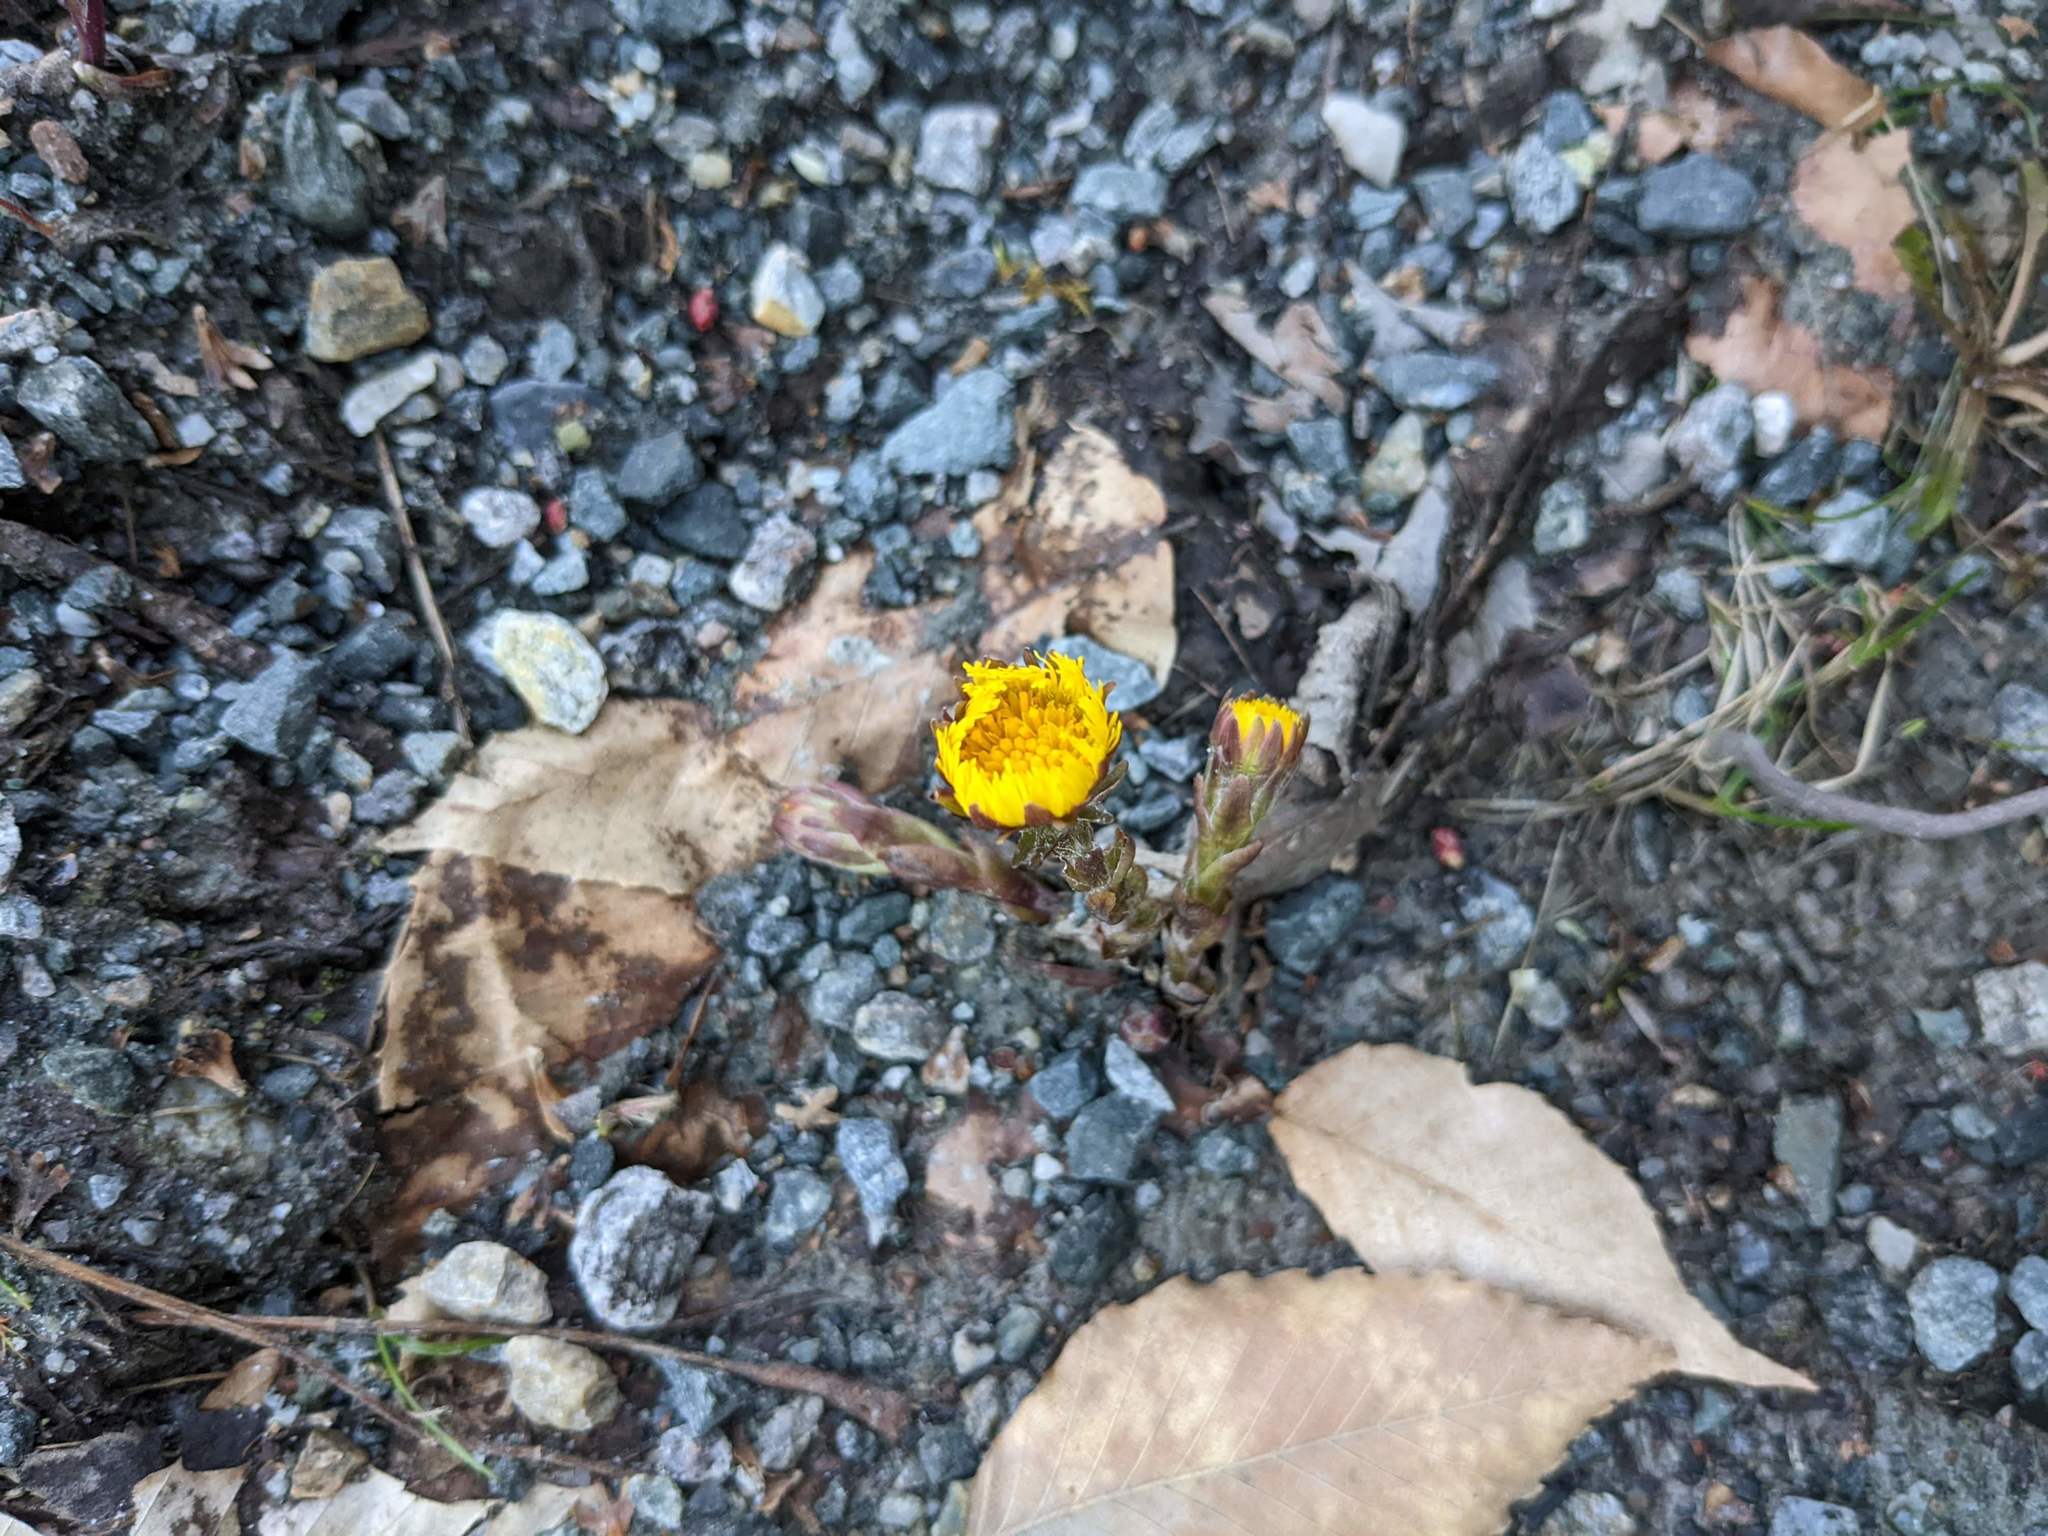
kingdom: Plantae
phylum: Tracheophyta
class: Magnoliopsida
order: Asterales
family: Asteraceae
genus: Tussilago
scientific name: Tussilago farfara
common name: Coltsfoot
